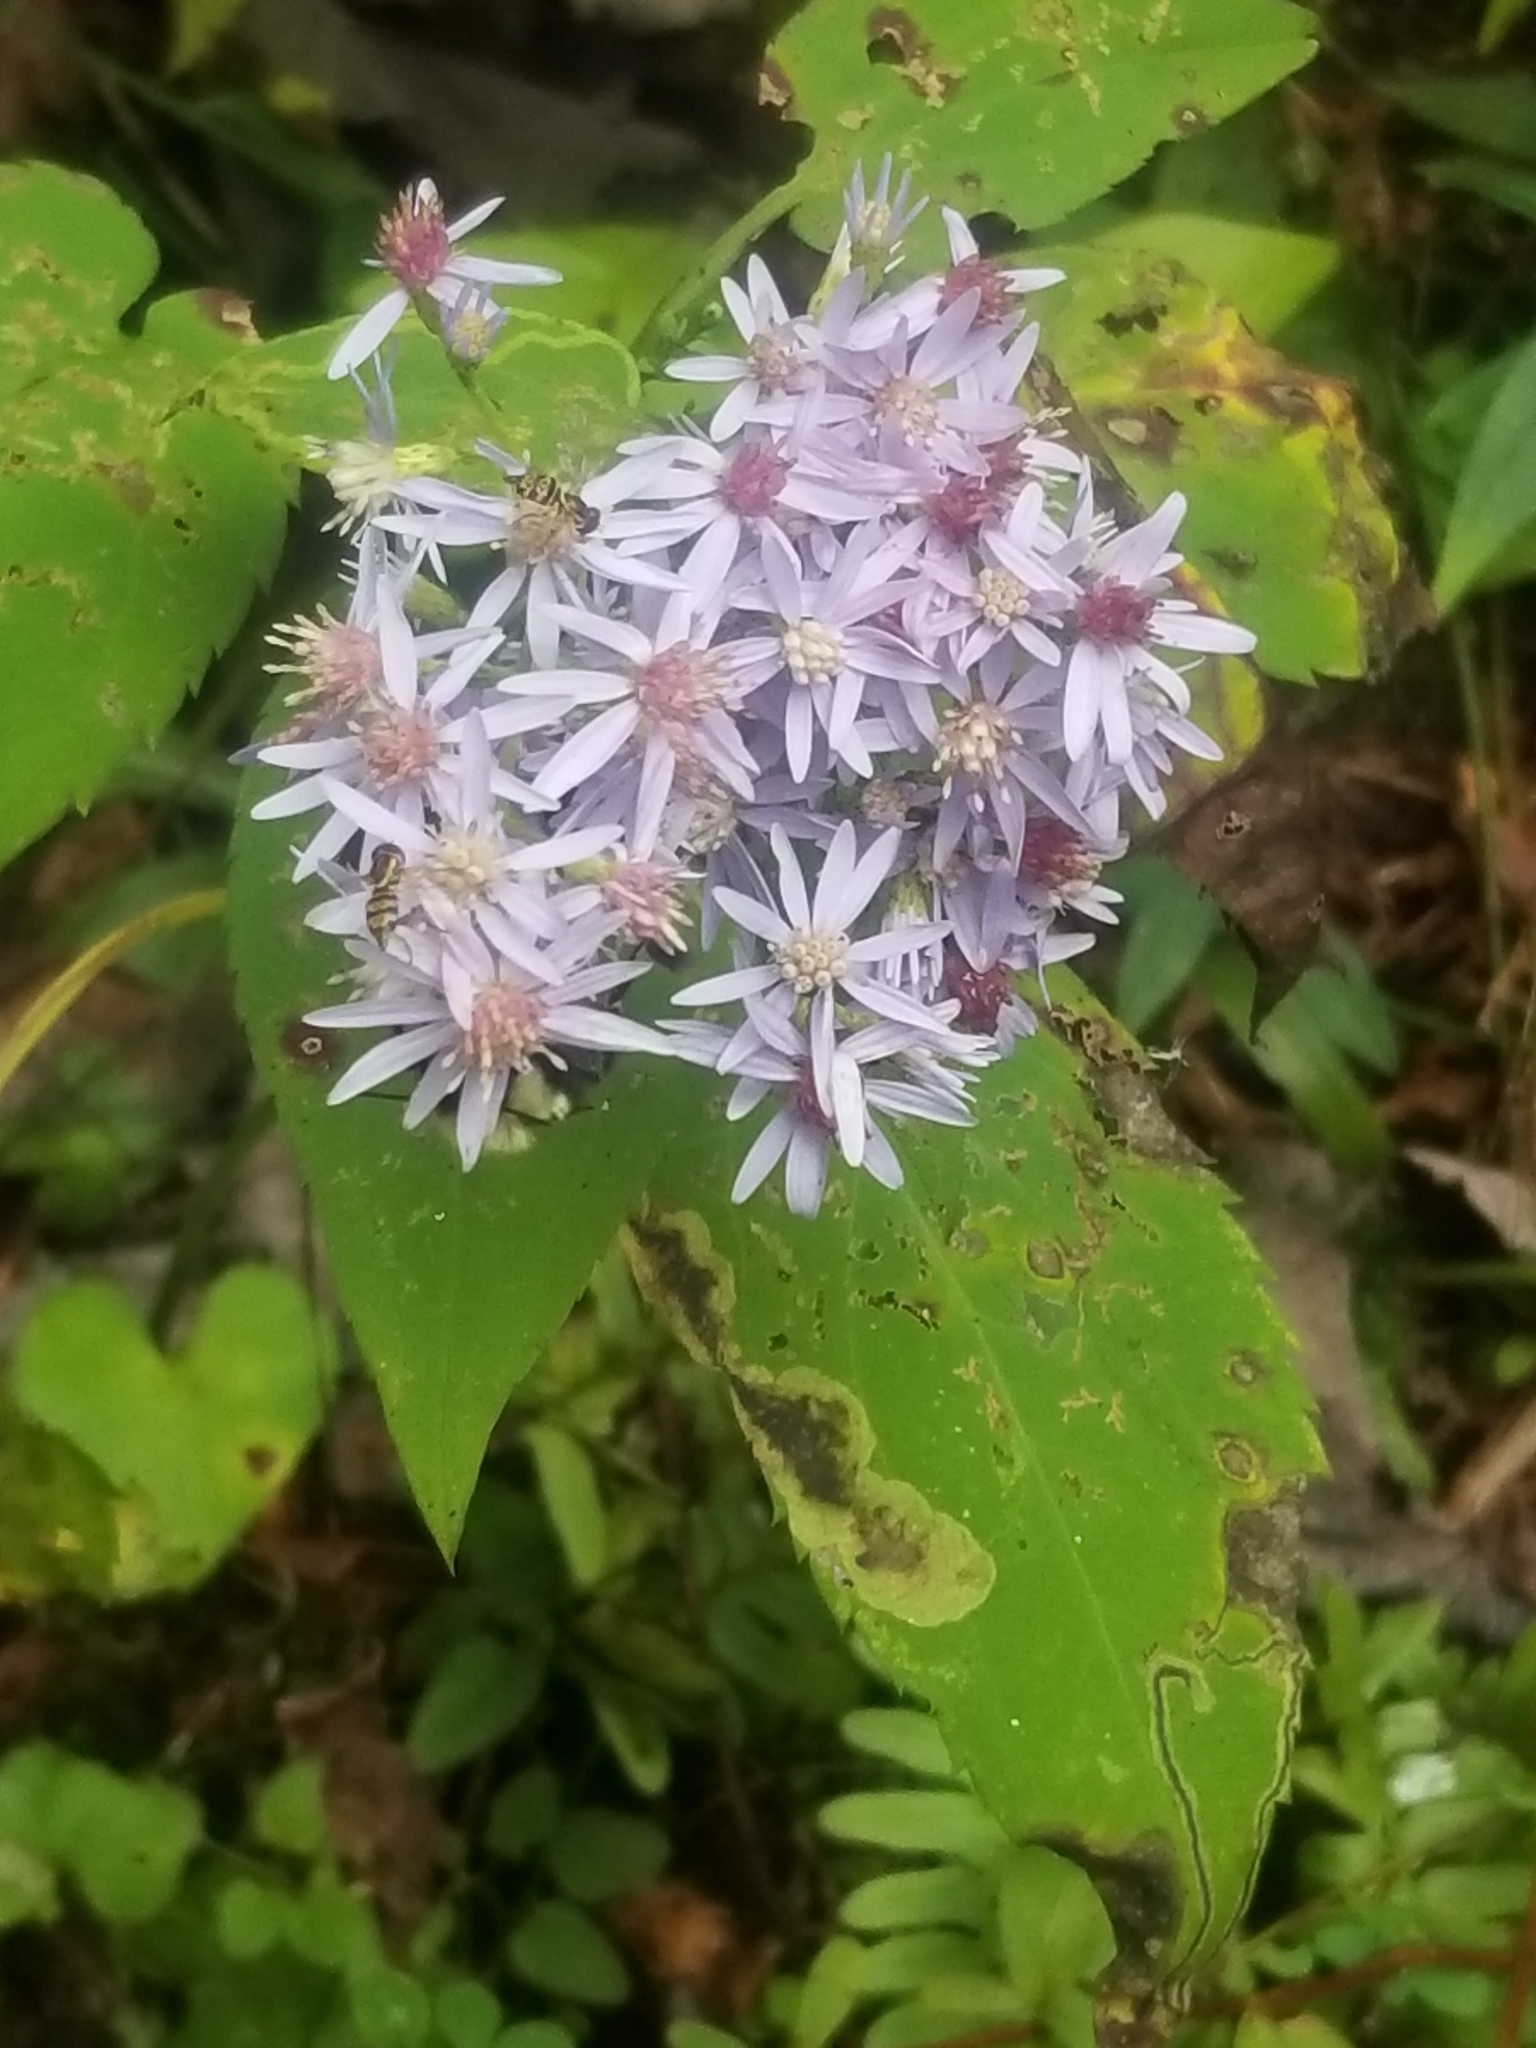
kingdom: Animalia
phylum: Arthropoda
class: Insecta
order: Hymenoptera
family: Apidae
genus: Bombus
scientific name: Bombus impatiens
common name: Common eastern bumble bee
